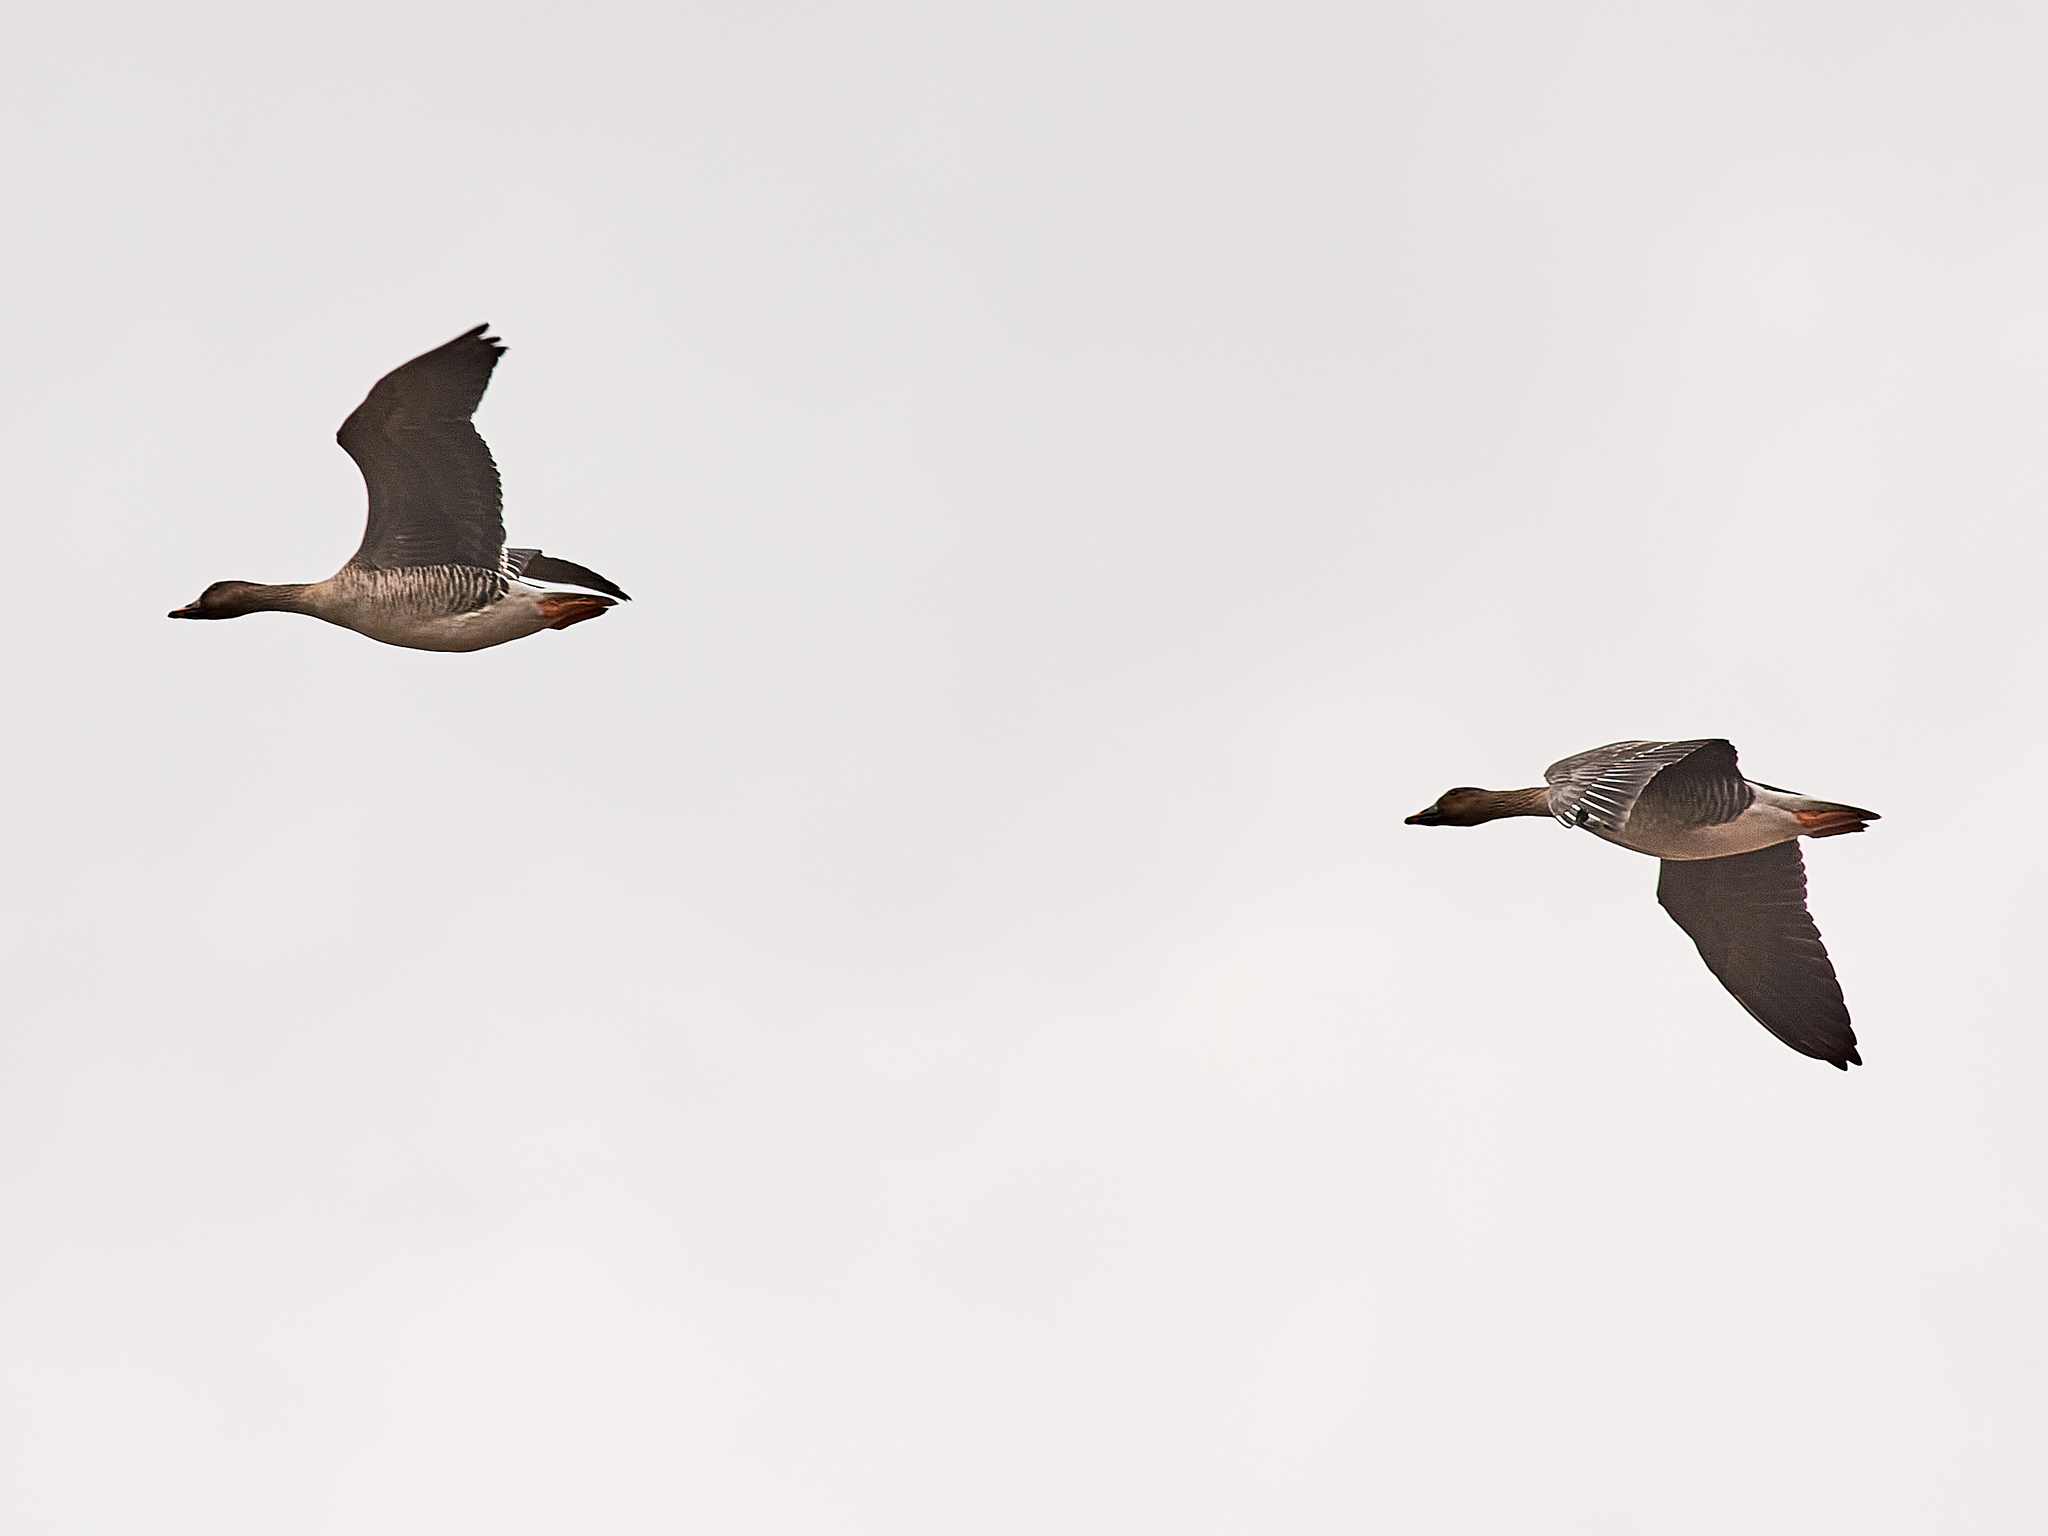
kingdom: Animalia
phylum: Chordata
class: Aves
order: Anseriformes
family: Anatidae
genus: Anser
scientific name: Anser fabalis
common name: Bean goose
